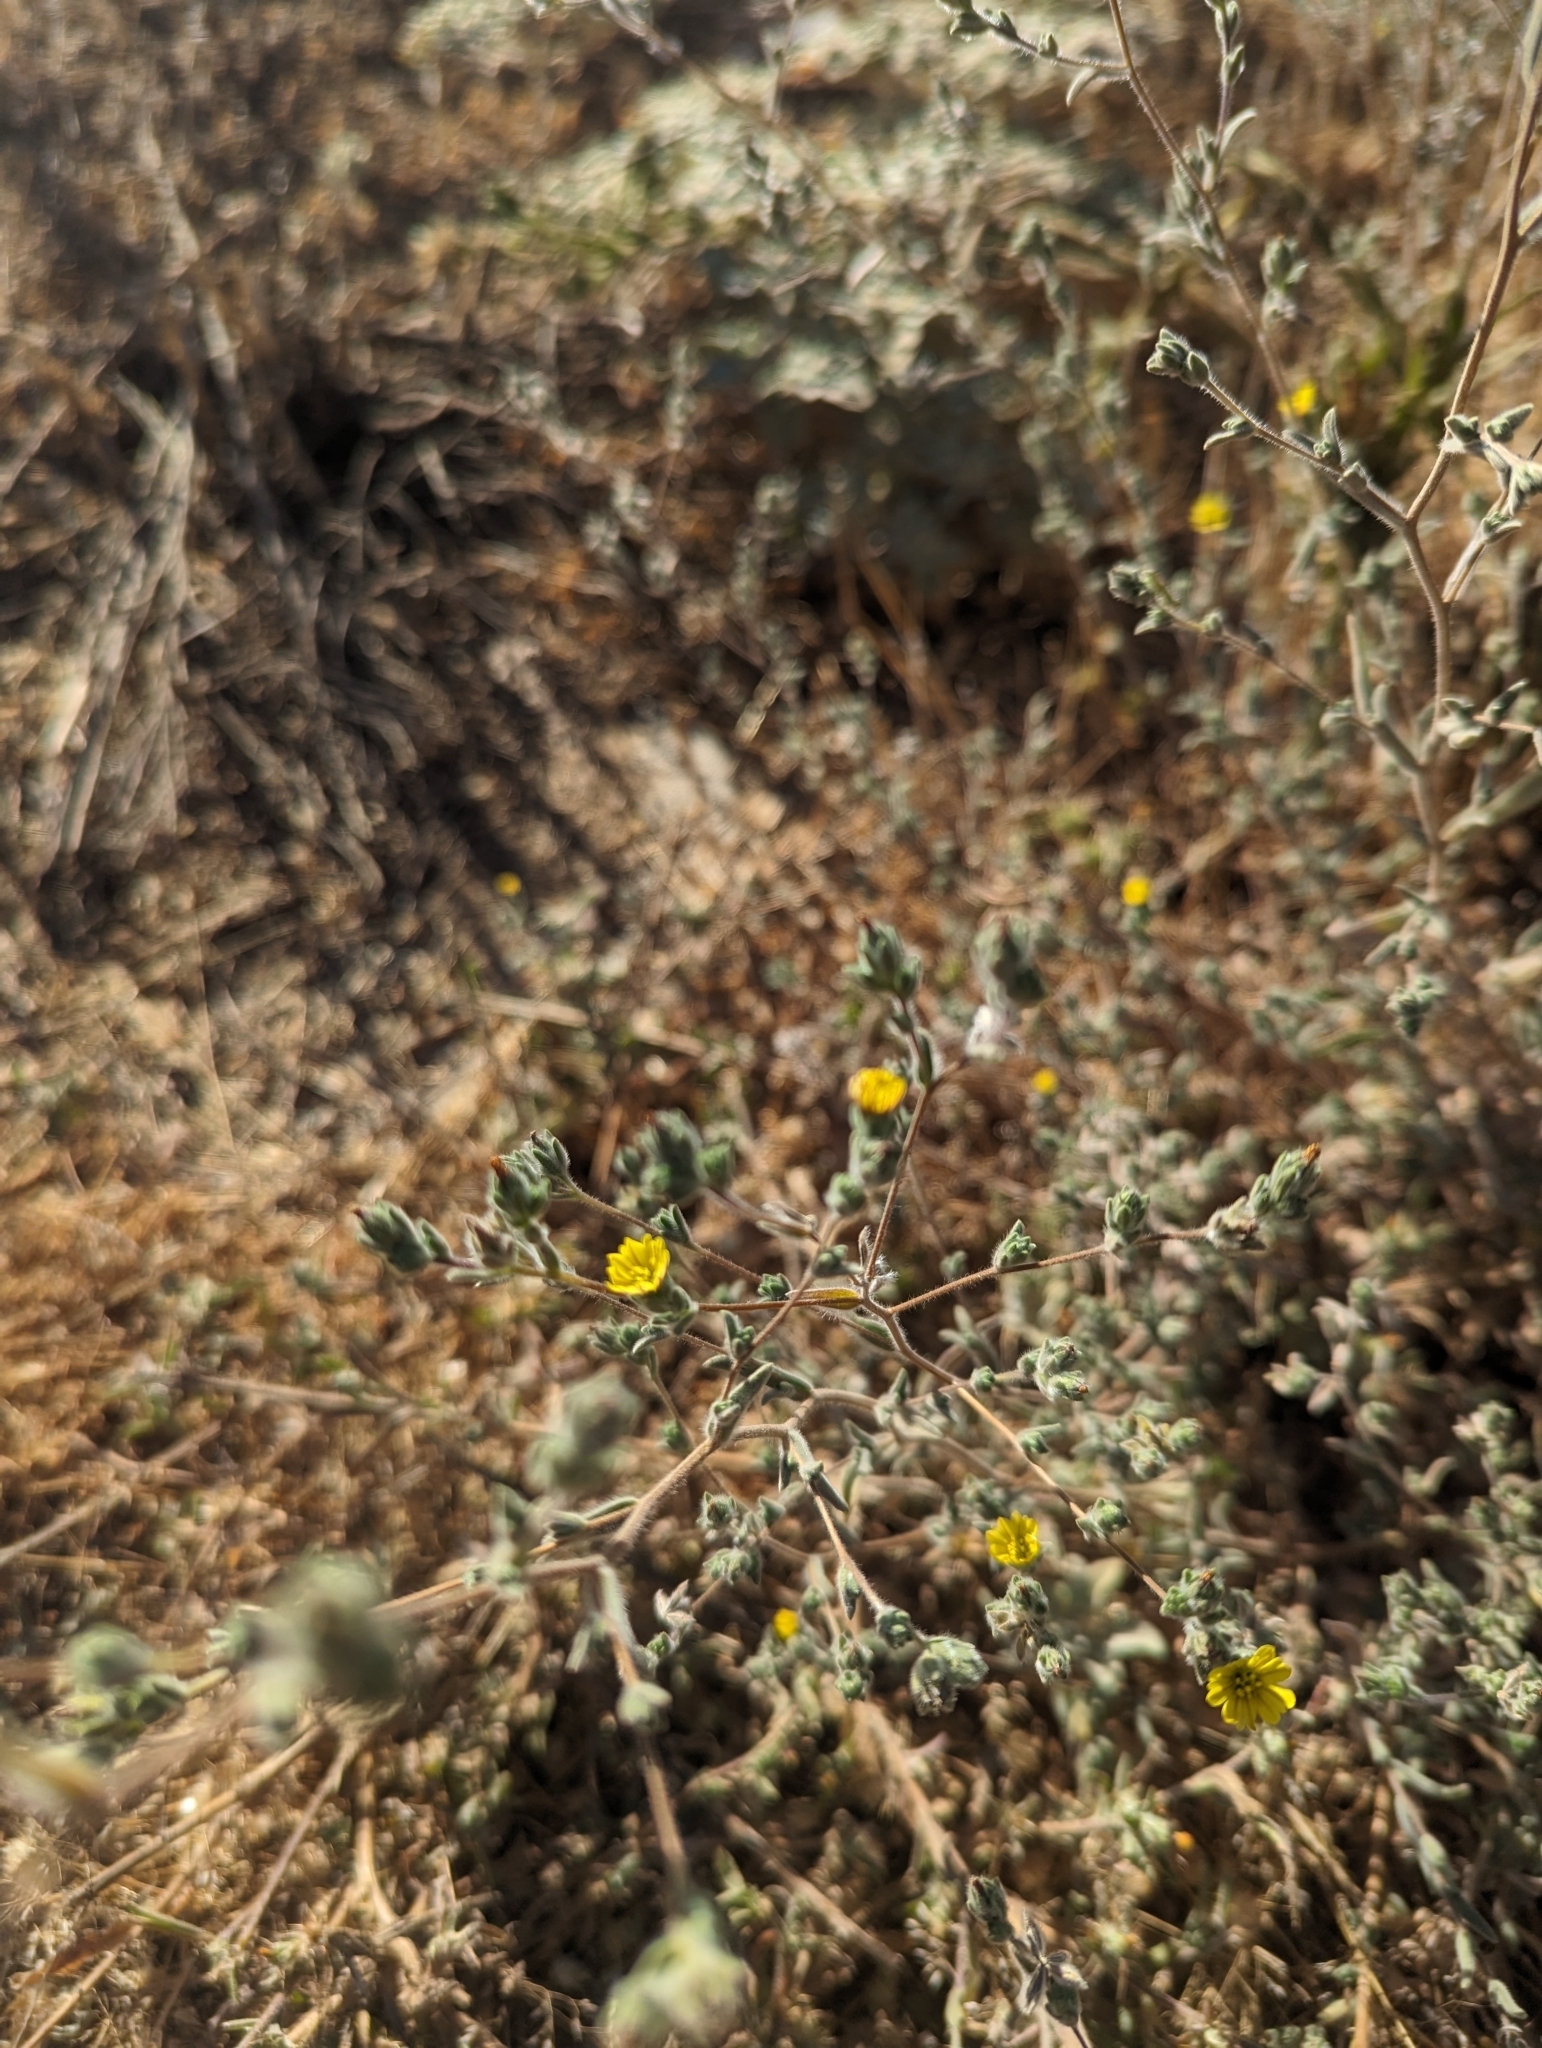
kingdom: Plantae
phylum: Tracheophyta
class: Magnoliopsida
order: Asterales
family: Asteraceae
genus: Lagophylla
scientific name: Lagophylla ramosissima
